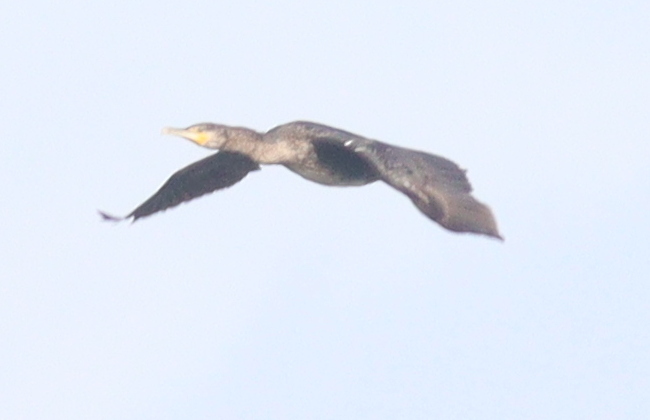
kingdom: Animalia
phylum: Chordata
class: Aves
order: Suliformes
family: Phalacrocoracidae
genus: Phalacrocorax
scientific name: Phalacrocorax carbo
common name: Great cormorant
